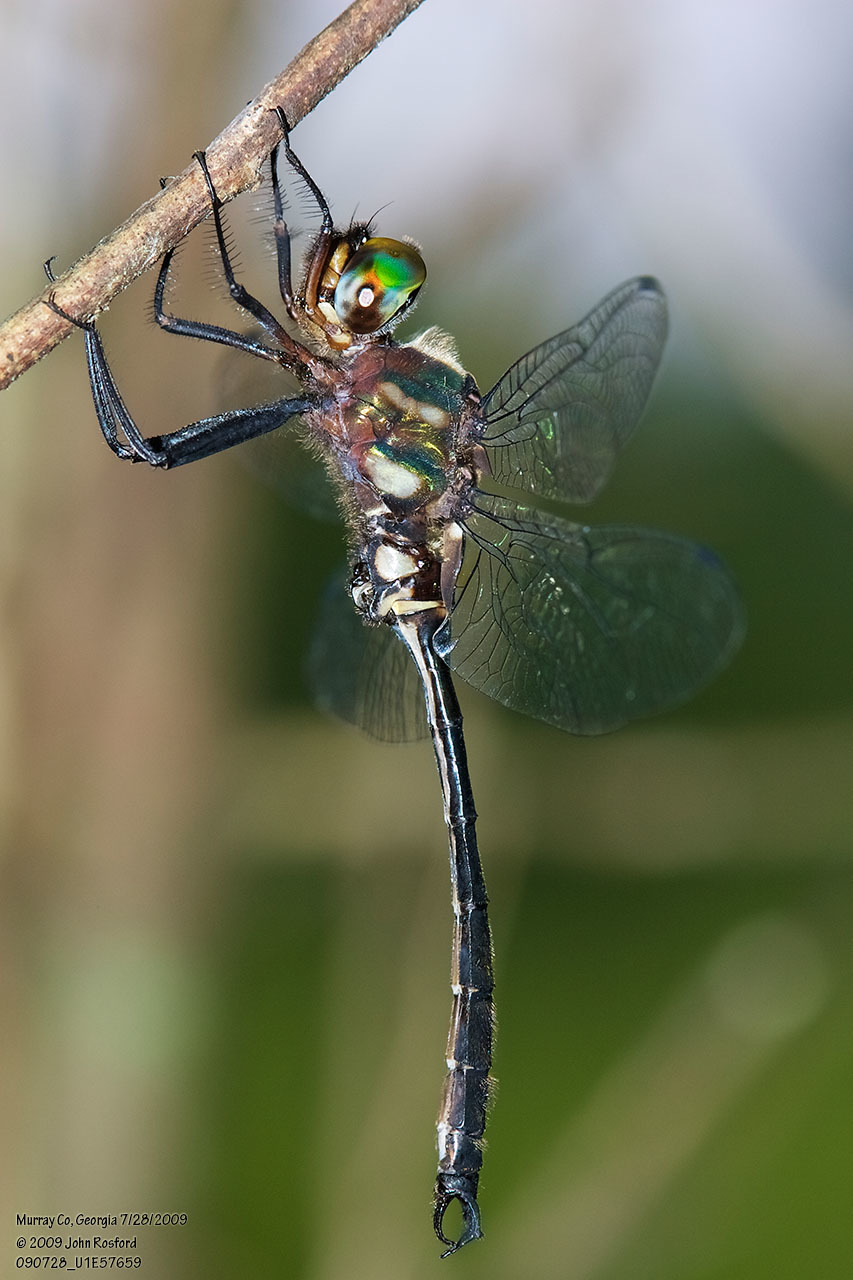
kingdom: Animalia
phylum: Arthropoda
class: Insecta
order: Odonata
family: Corduliidae
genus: Somatochlora
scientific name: Somatochlora tenebrosa
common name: Clamp-tipped emerald
